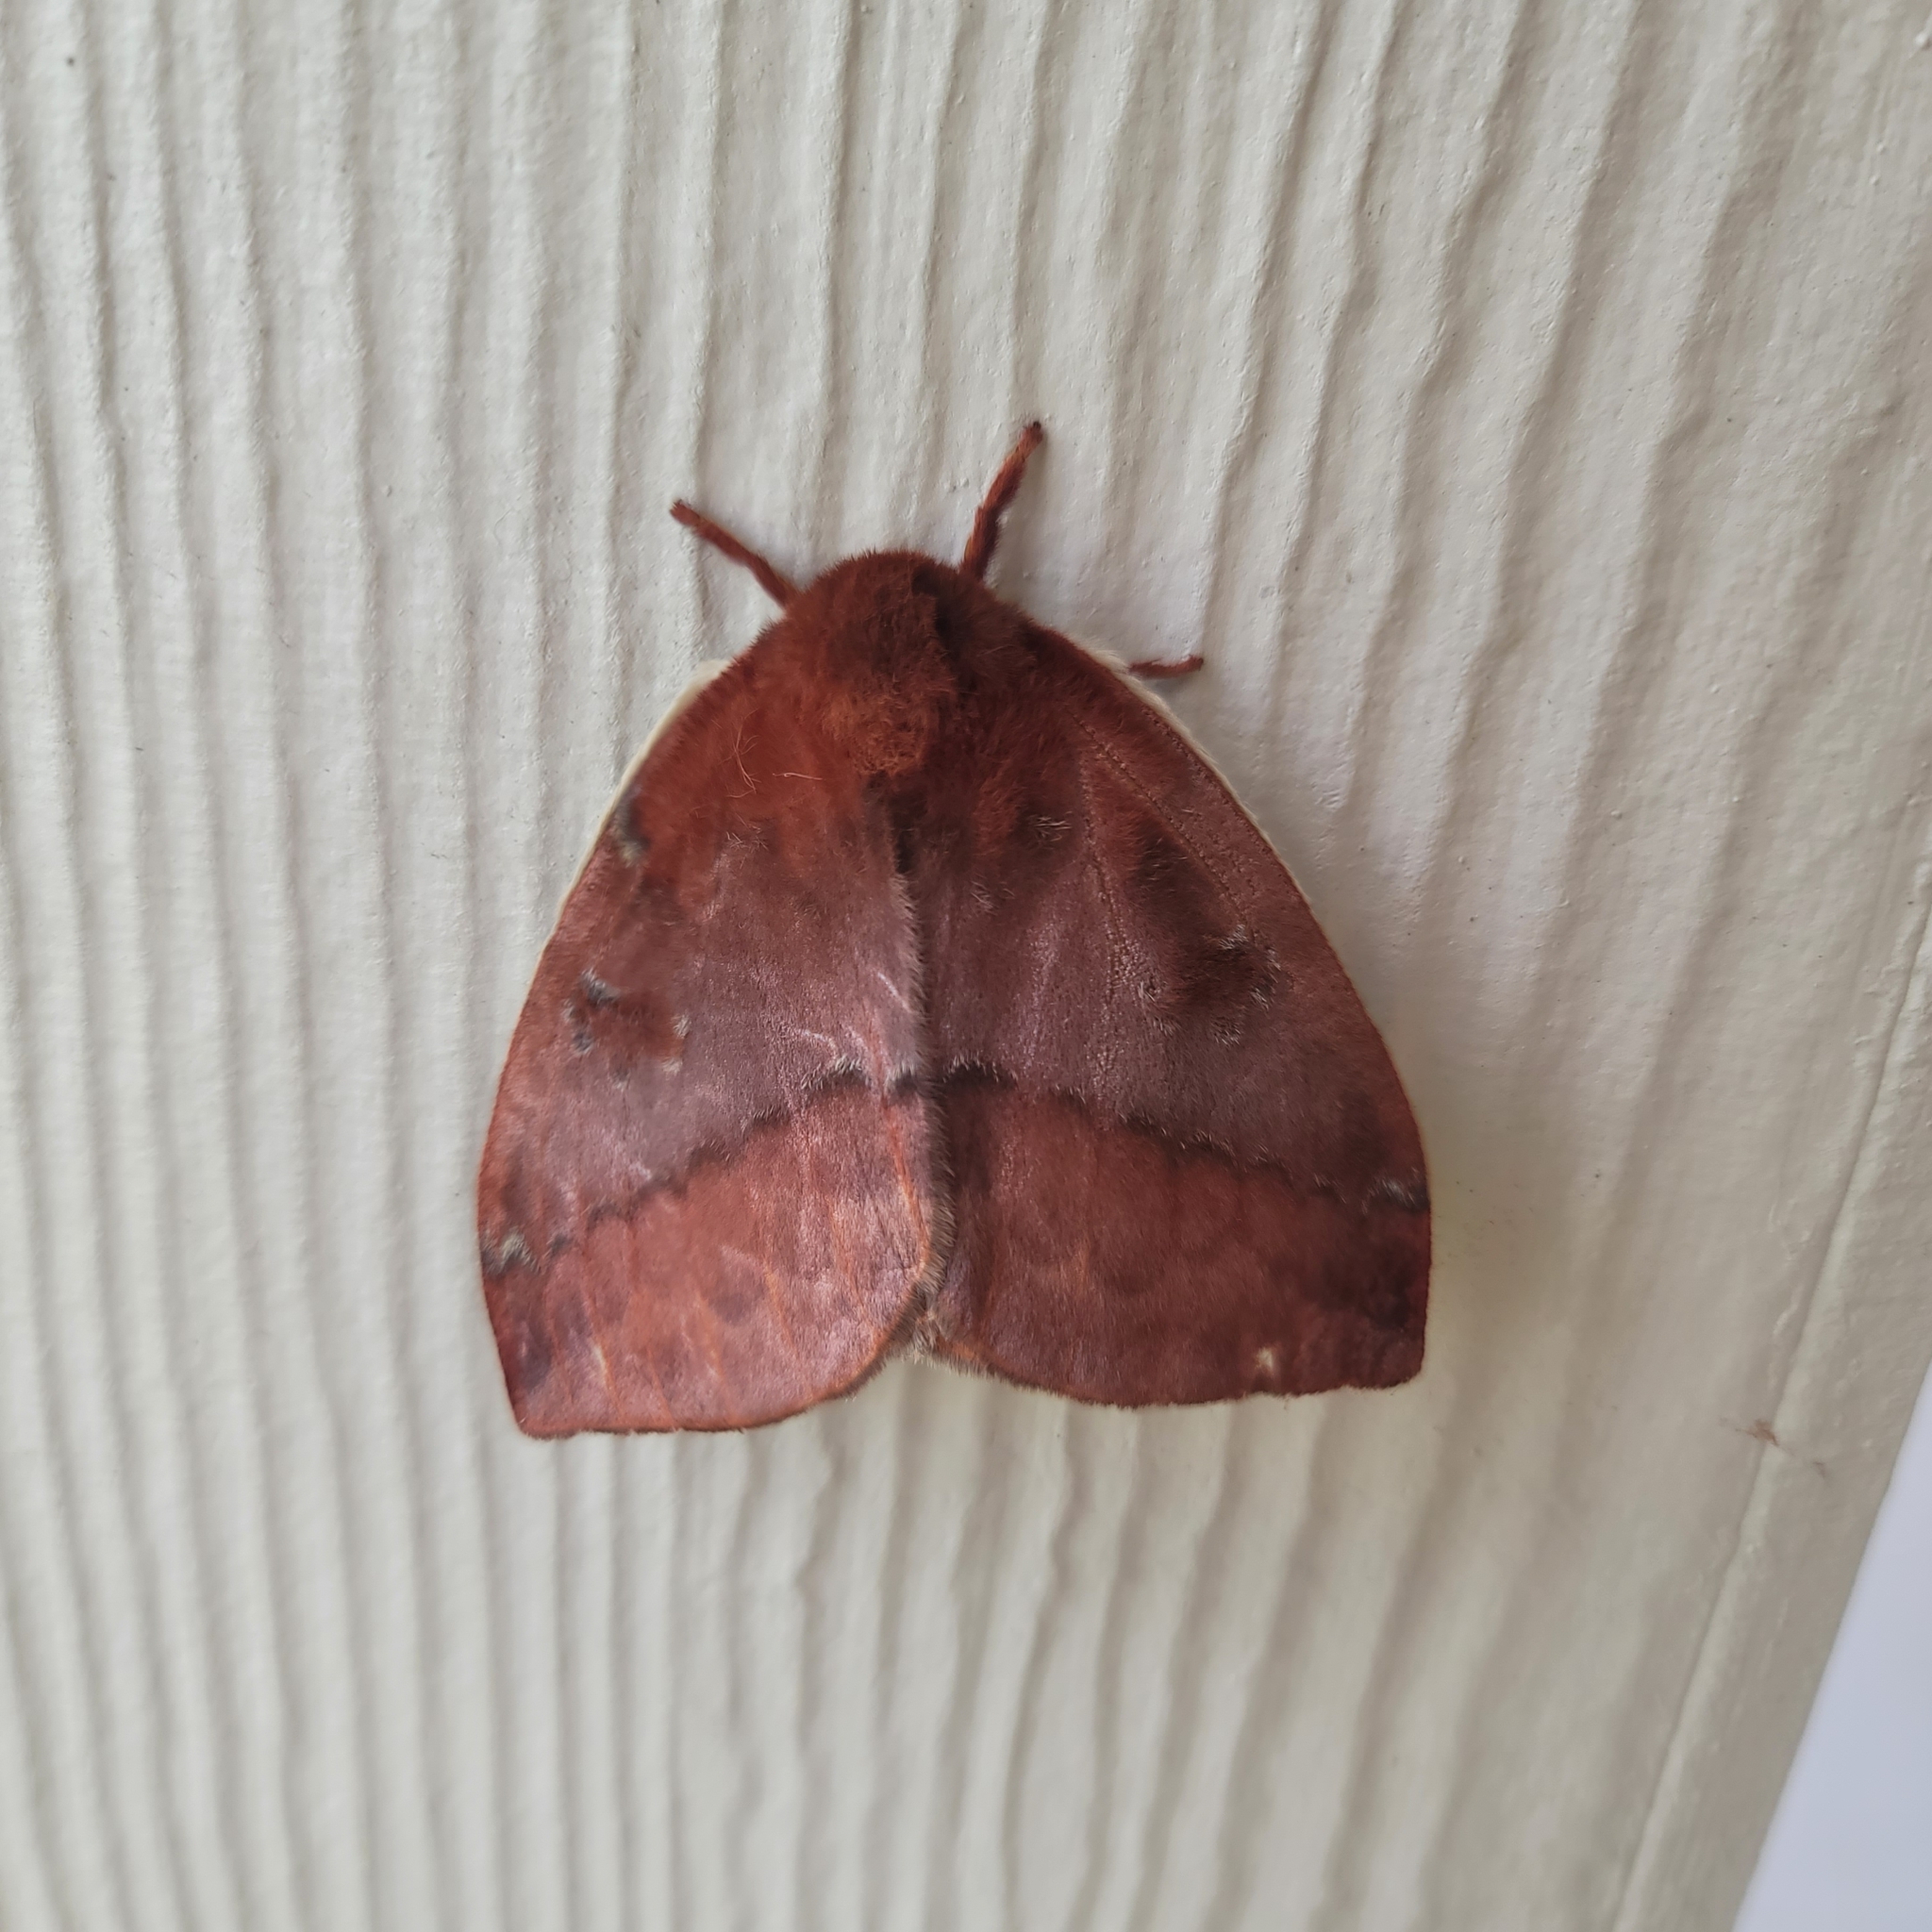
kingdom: Animalia
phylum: Arthropoda
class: Insecta
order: Lepidoptera
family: Saturniidae
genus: Automeris
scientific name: Automeris io
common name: Io moth
